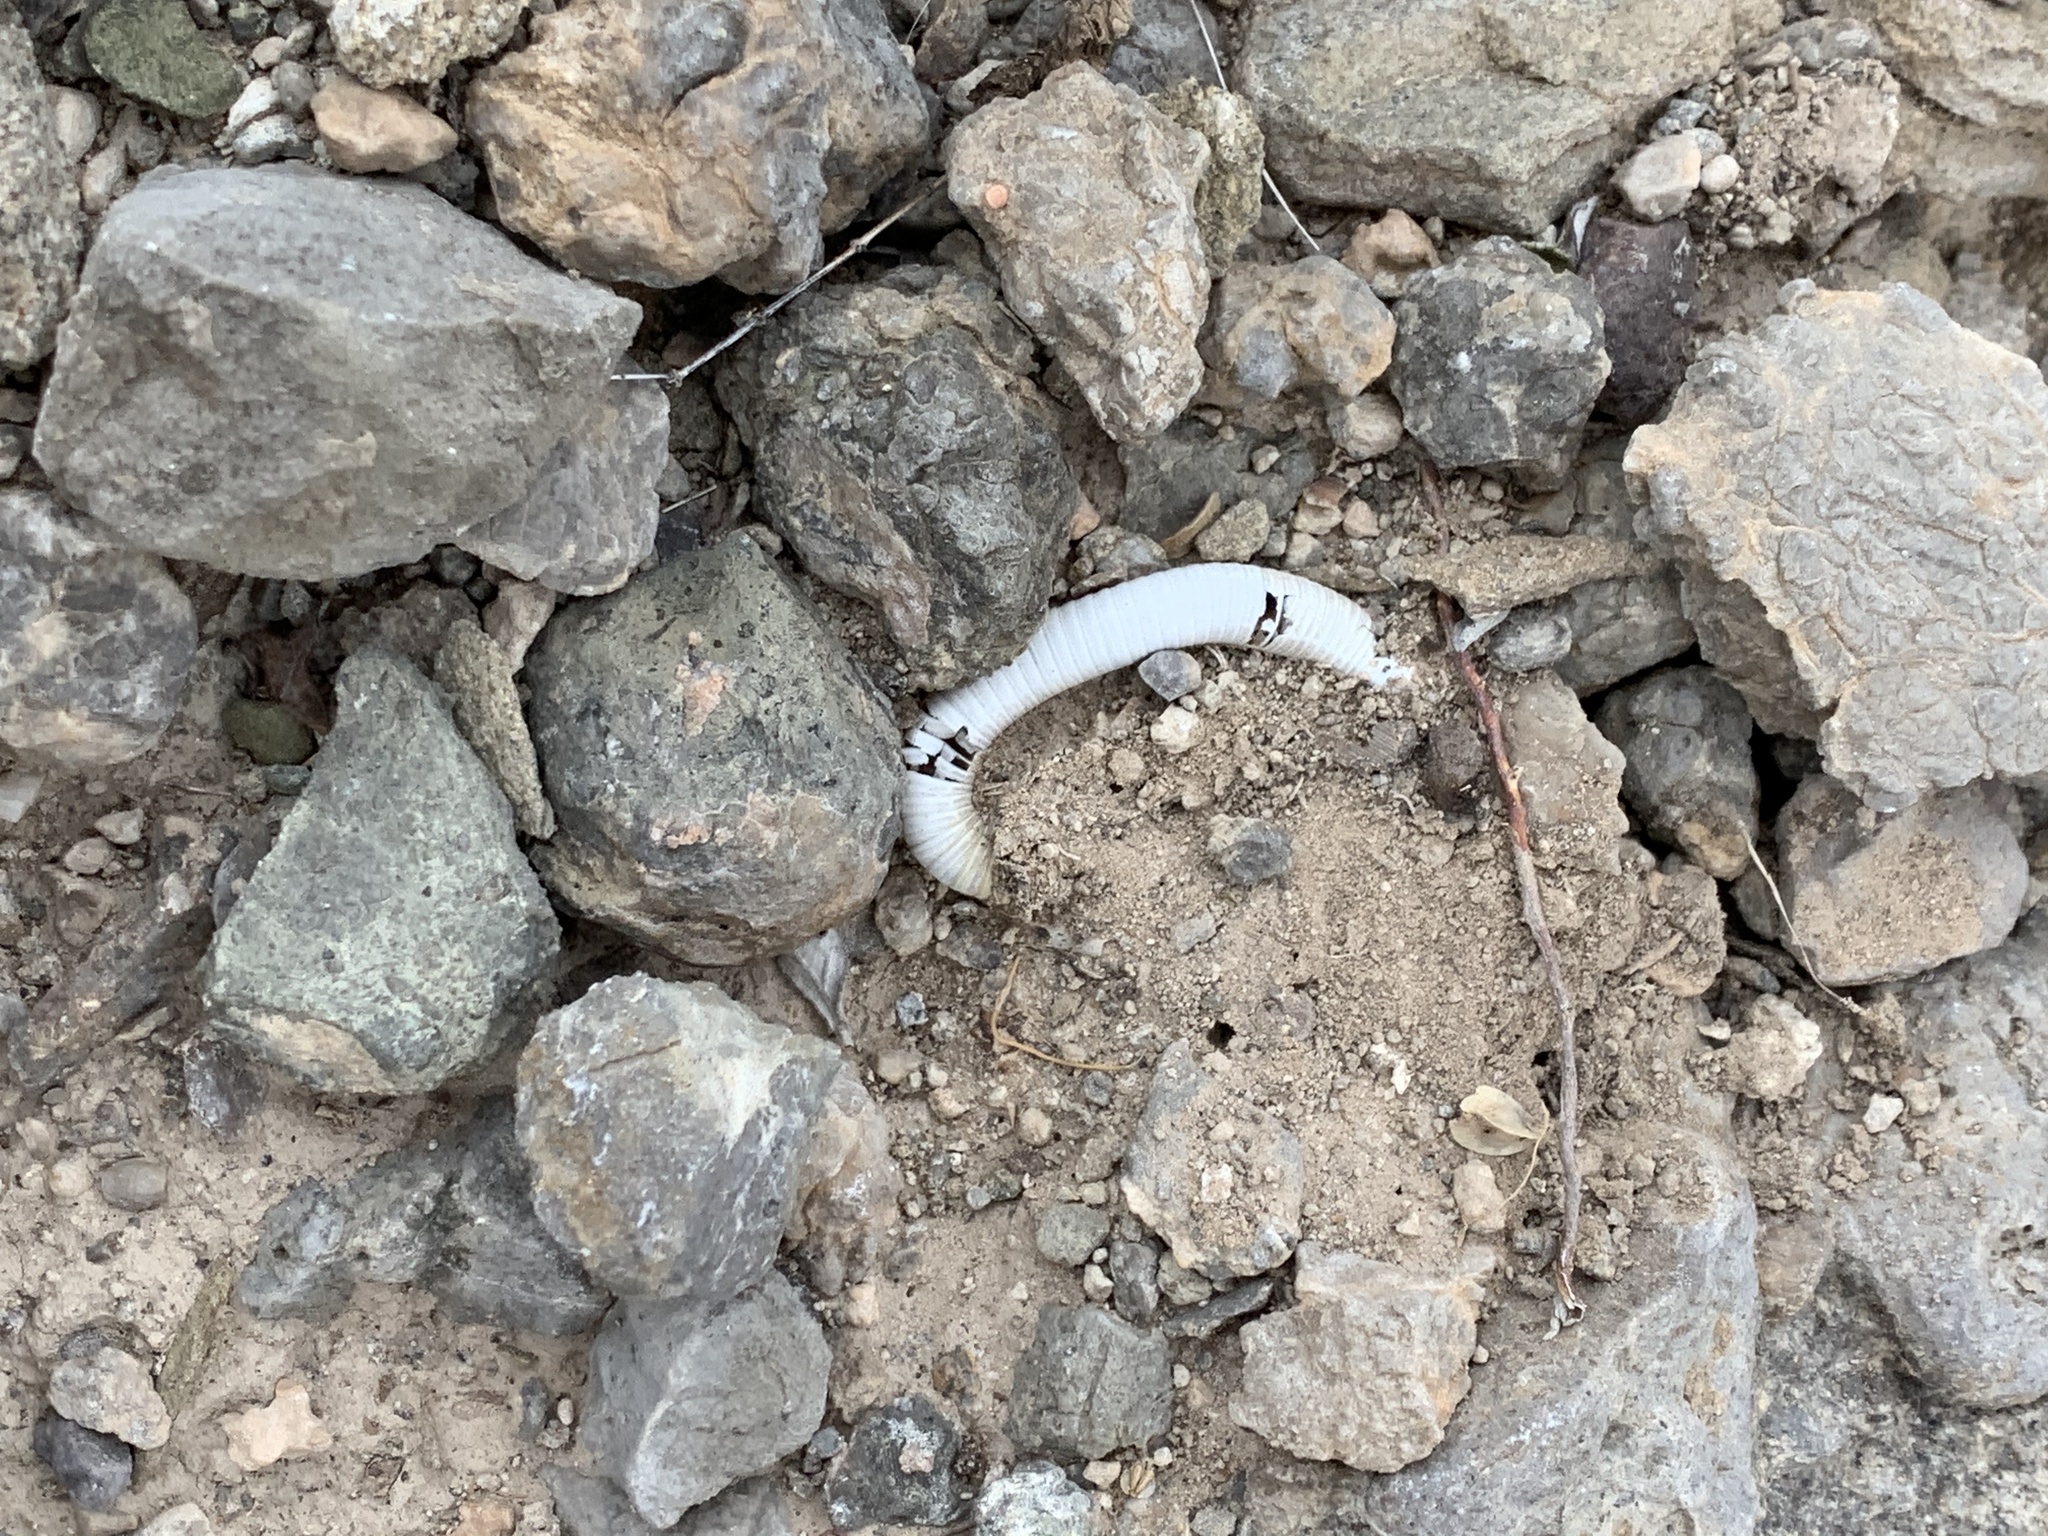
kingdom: Animalia
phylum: Arthropoda
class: Diplopoda
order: Spirostreptida
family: Spirostreptidae
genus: Orthoporus
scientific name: Orthoporus ornatus
